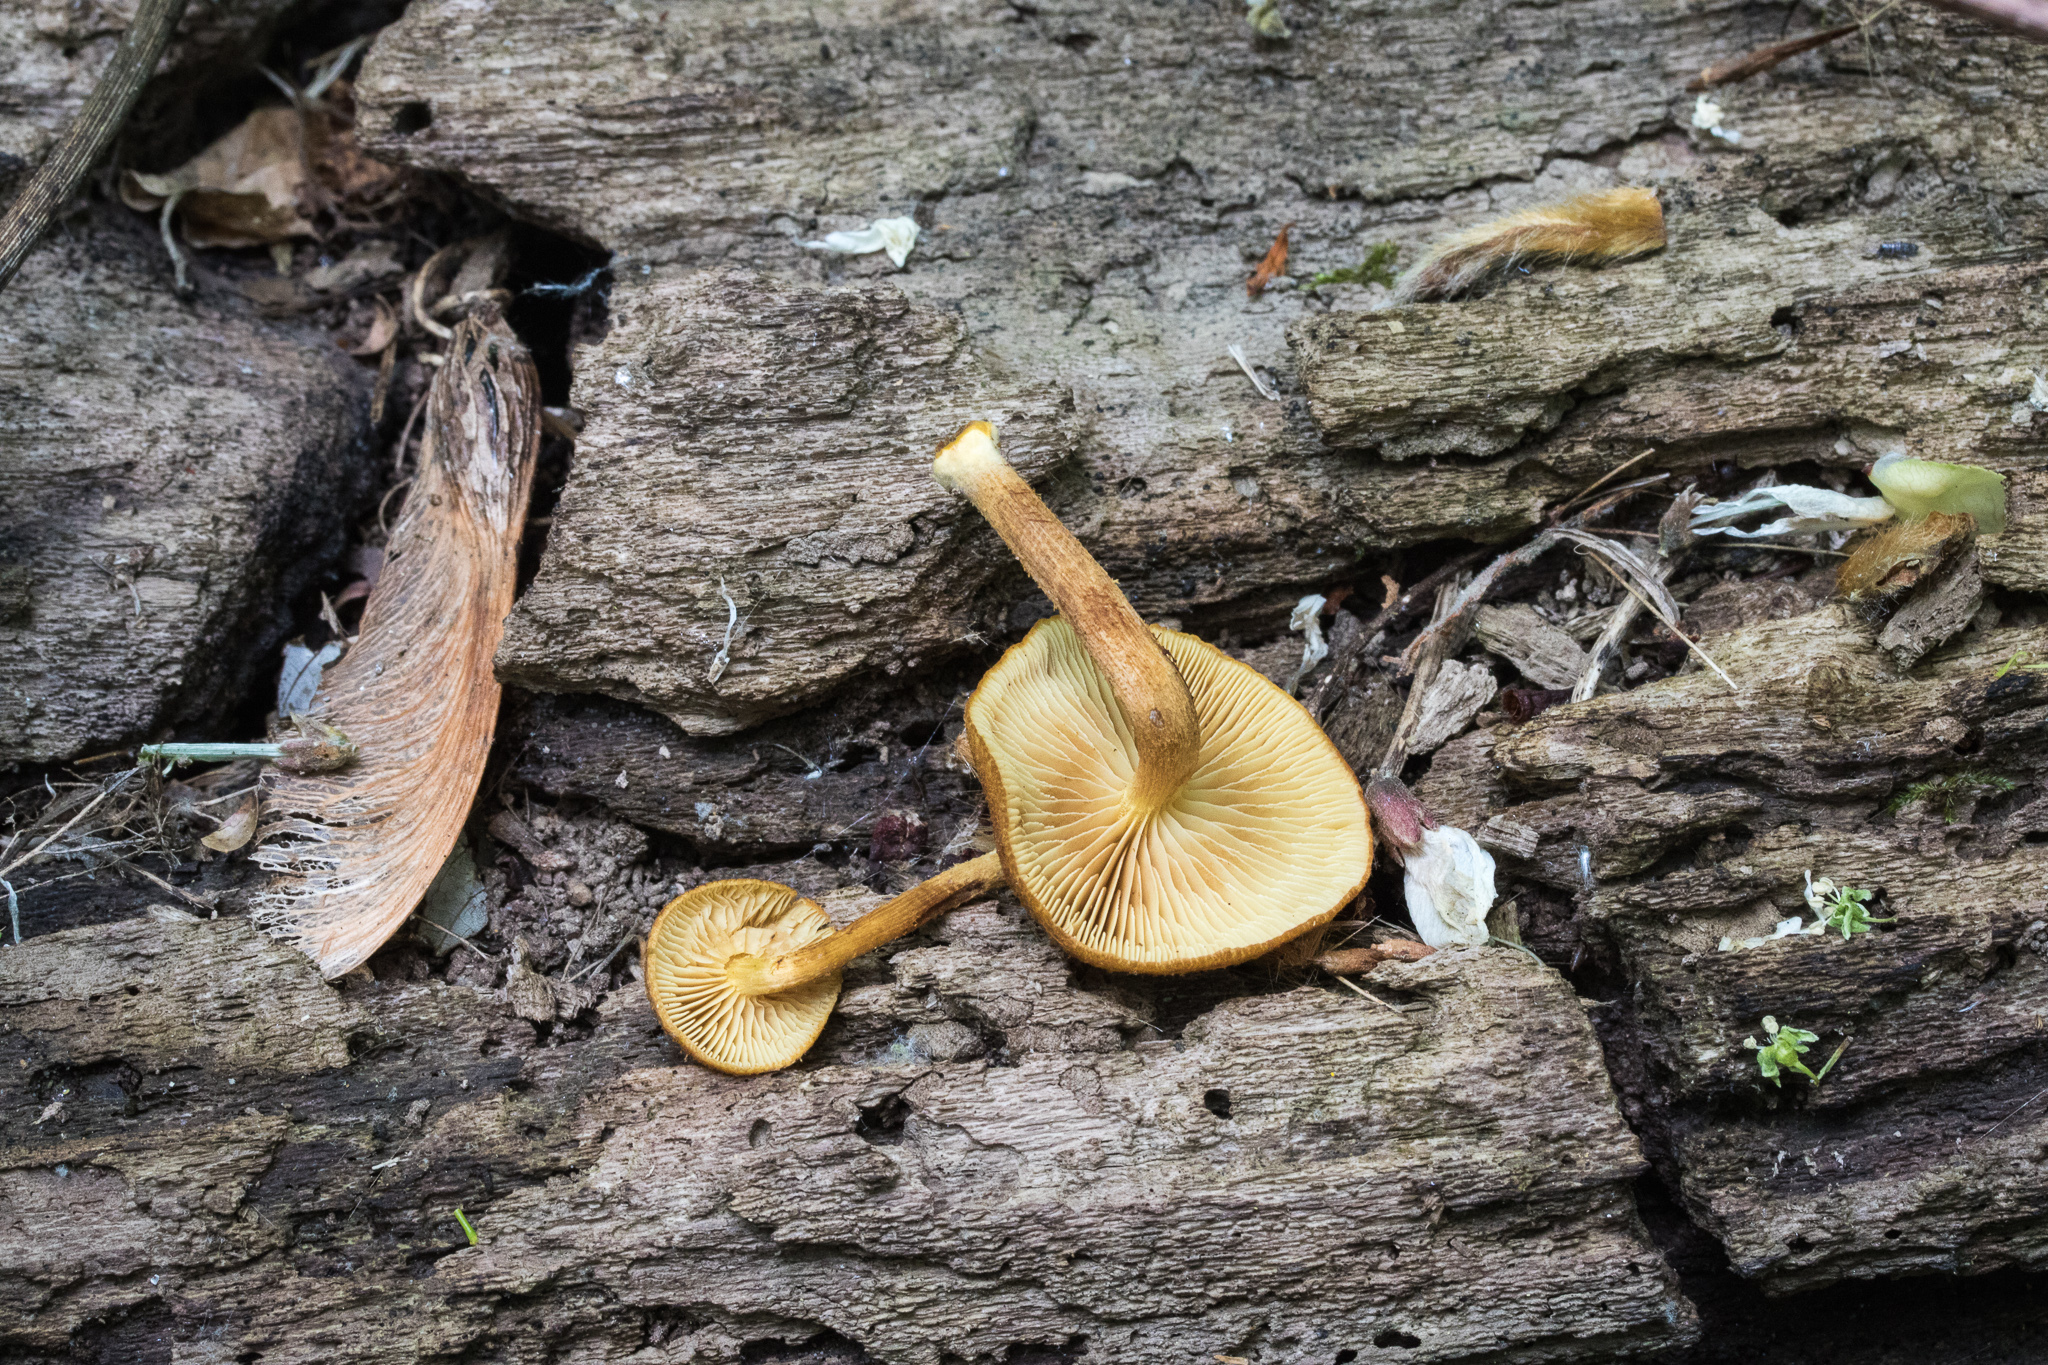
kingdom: Fungi
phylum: Basidiomycota
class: Agaricomycetes
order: Agaricales
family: Tubariaceae
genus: Flammulaster
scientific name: Flammulaster erinaceellus
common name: Powder-scale pholiota
